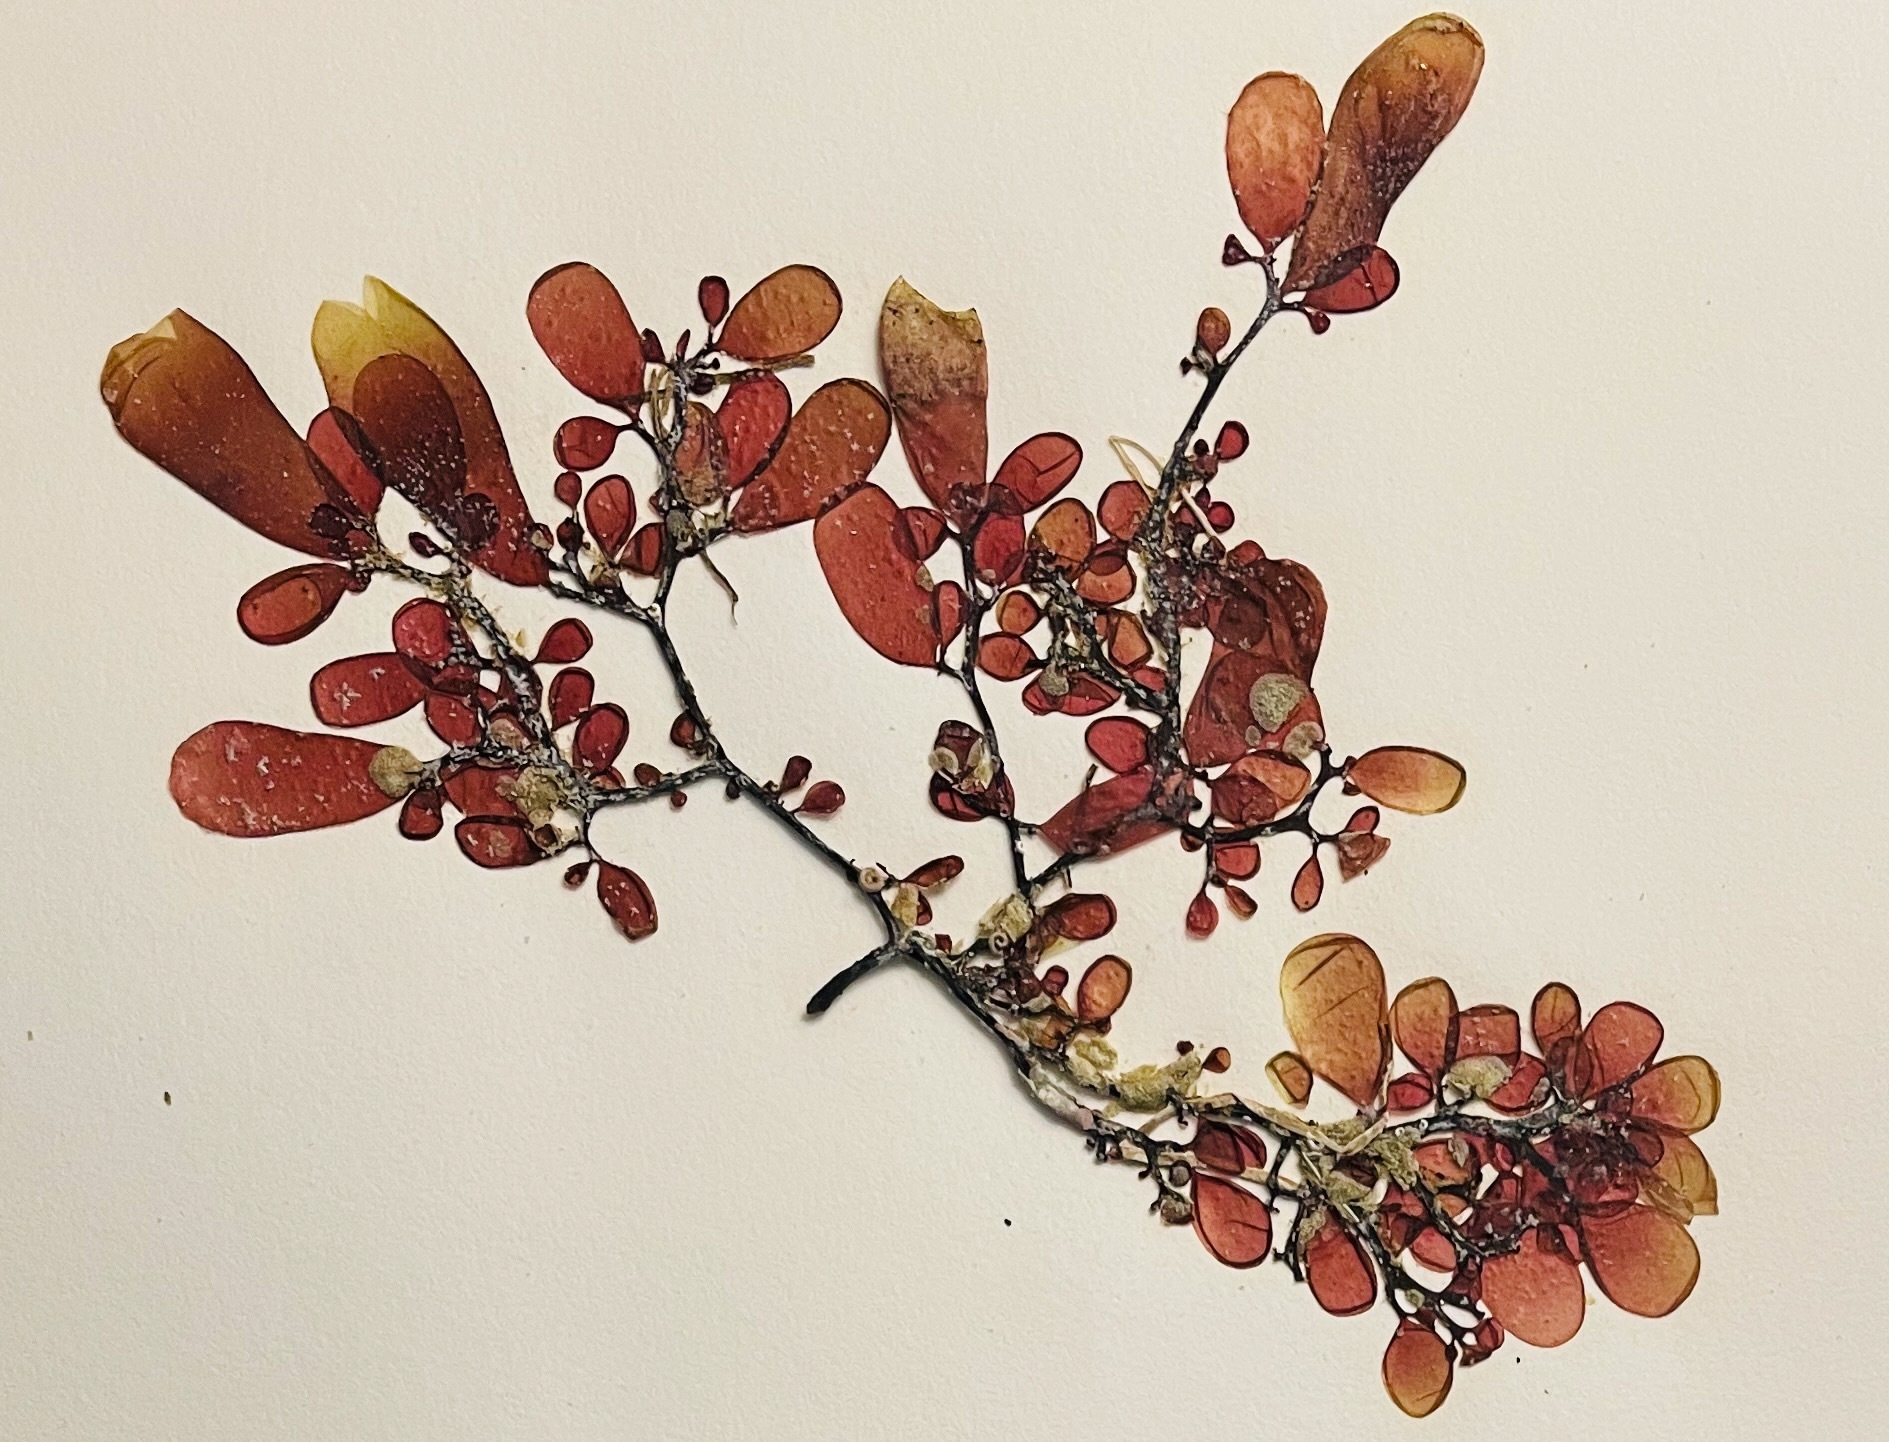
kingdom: Plantae
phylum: Rhodophyta
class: Florideophyceae
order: Rhodymeniales
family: Rhodymeniaceae
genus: Botryocladia
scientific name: Botryocladia pseudodichotoma
